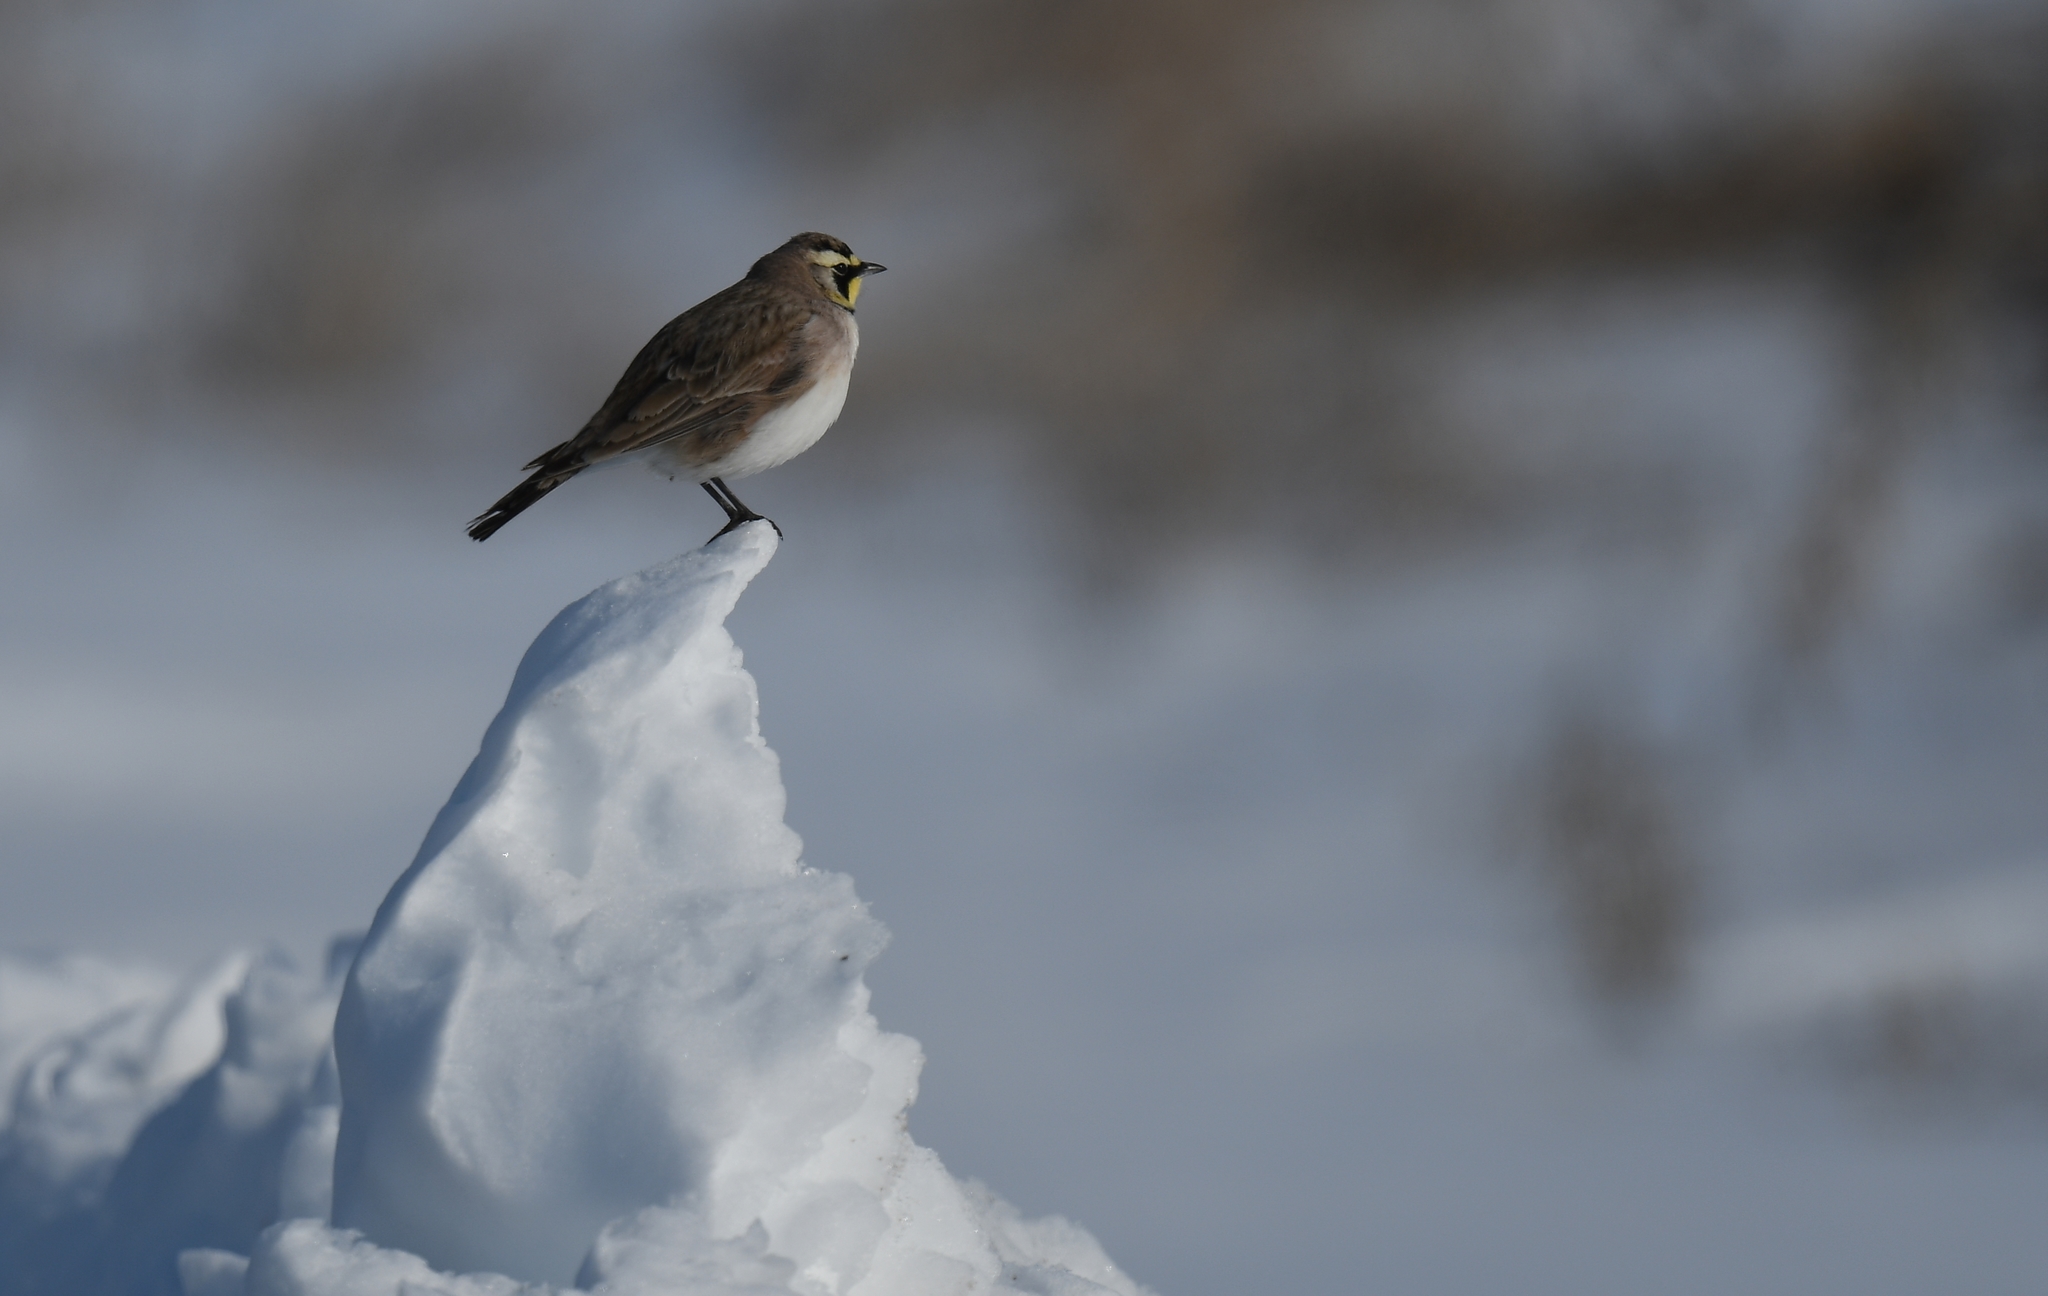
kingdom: Animalia
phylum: Chordata
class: Aves
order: Passeriformes
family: Alaudidae
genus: Eremophila
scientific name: Eremophila alpestris
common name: Horned lark
